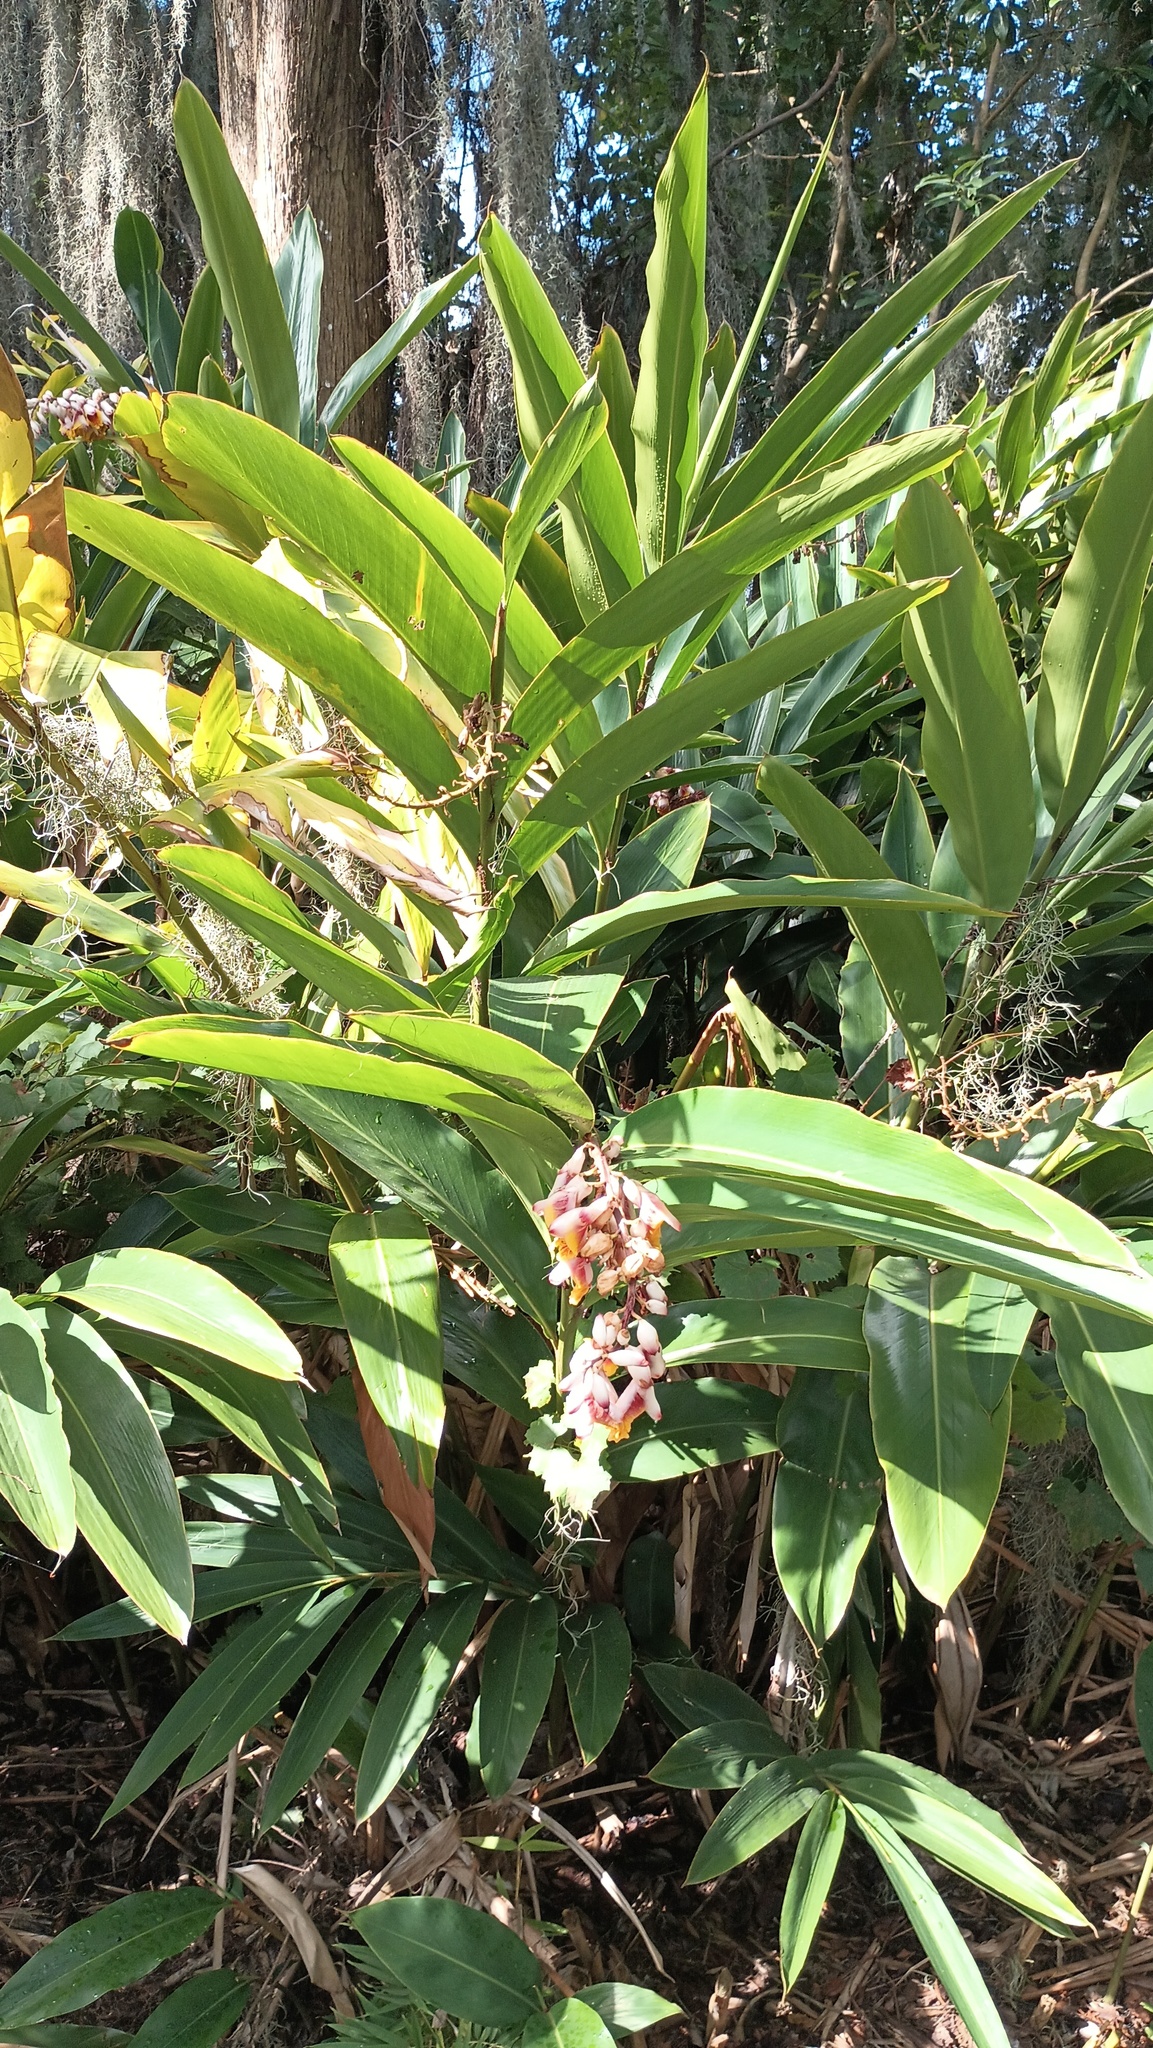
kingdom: Plantae
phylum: Tracheophyta
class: Liliopsida
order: Zingiberales
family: Zingiberaceae
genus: Alpinia
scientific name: Alpinia zerumbet
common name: Shellplant
